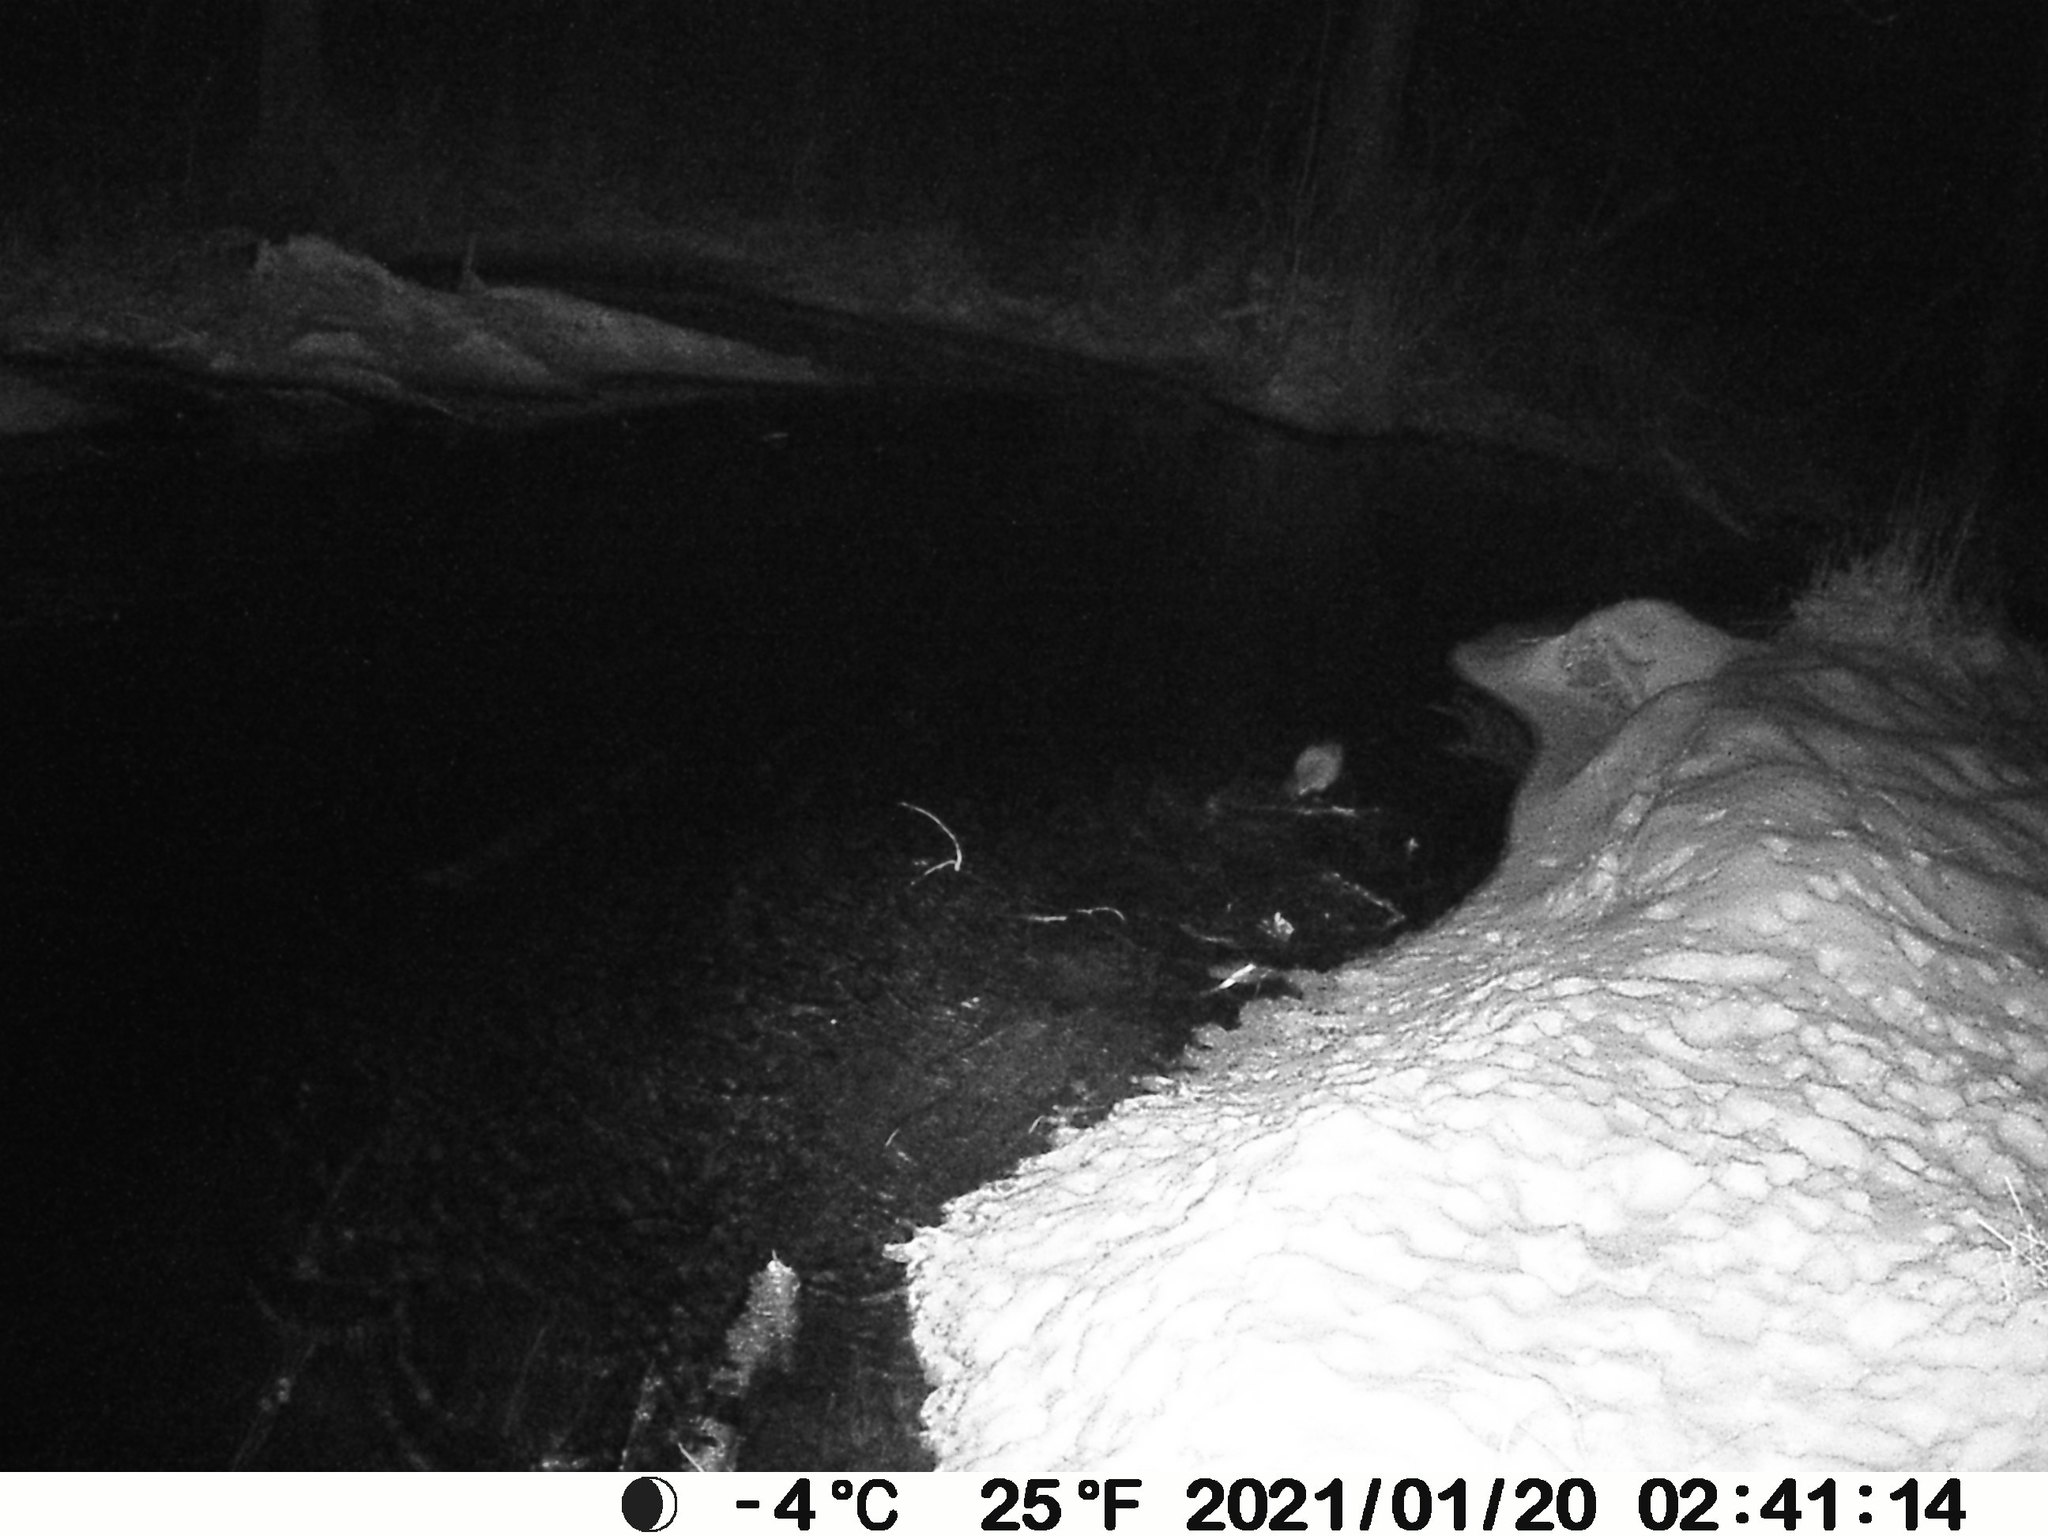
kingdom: Animalia
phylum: Chordata
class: Mammalia
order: Carnivora
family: Mustelidae
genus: Mustela
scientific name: Mustela
